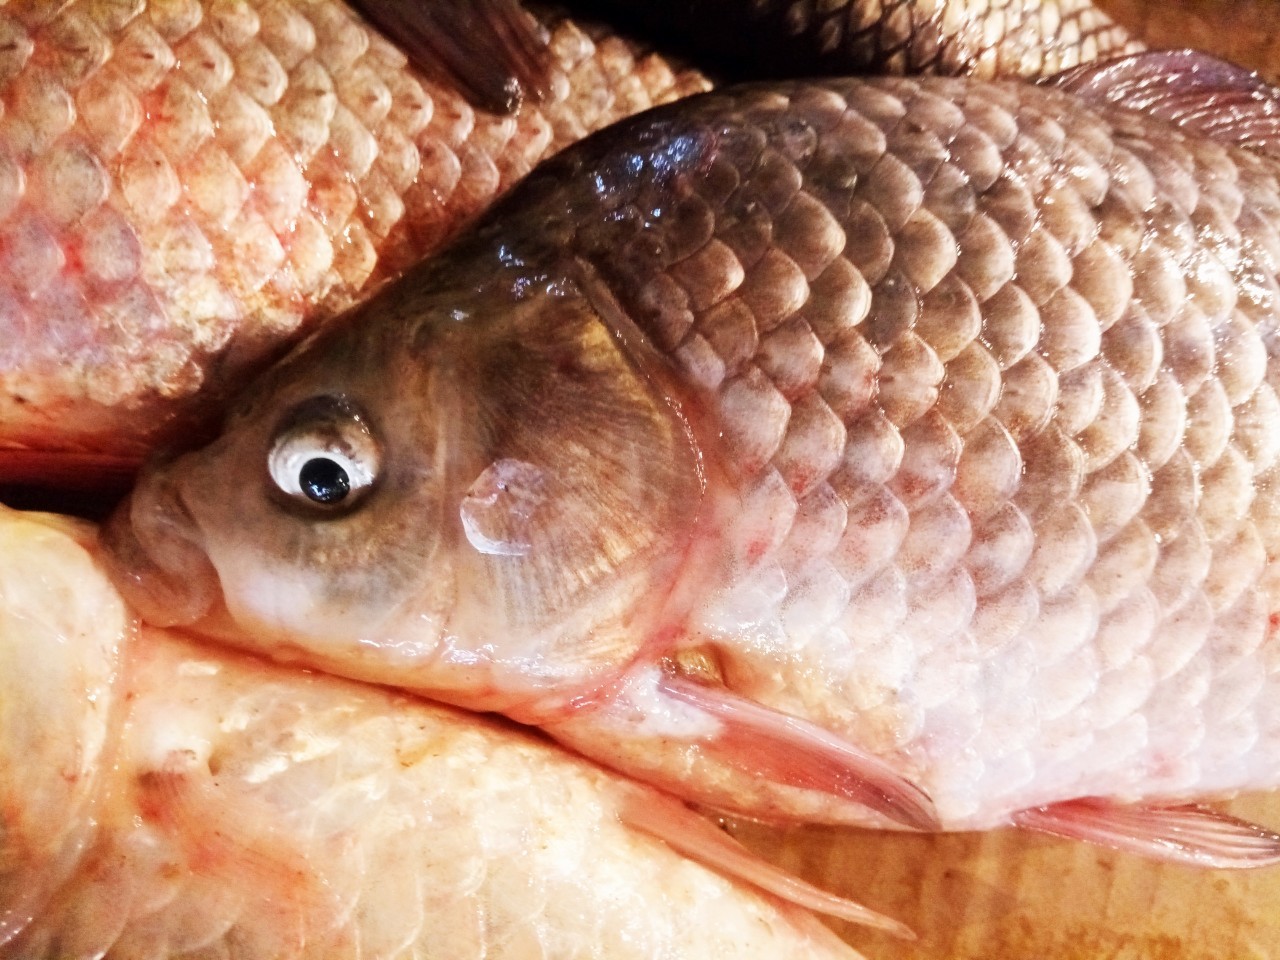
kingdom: Animalia
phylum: Chordata
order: Cypriniformes
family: Cyprinidae
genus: Carassius
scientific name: Carassius gibelio
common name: Prussian carp
